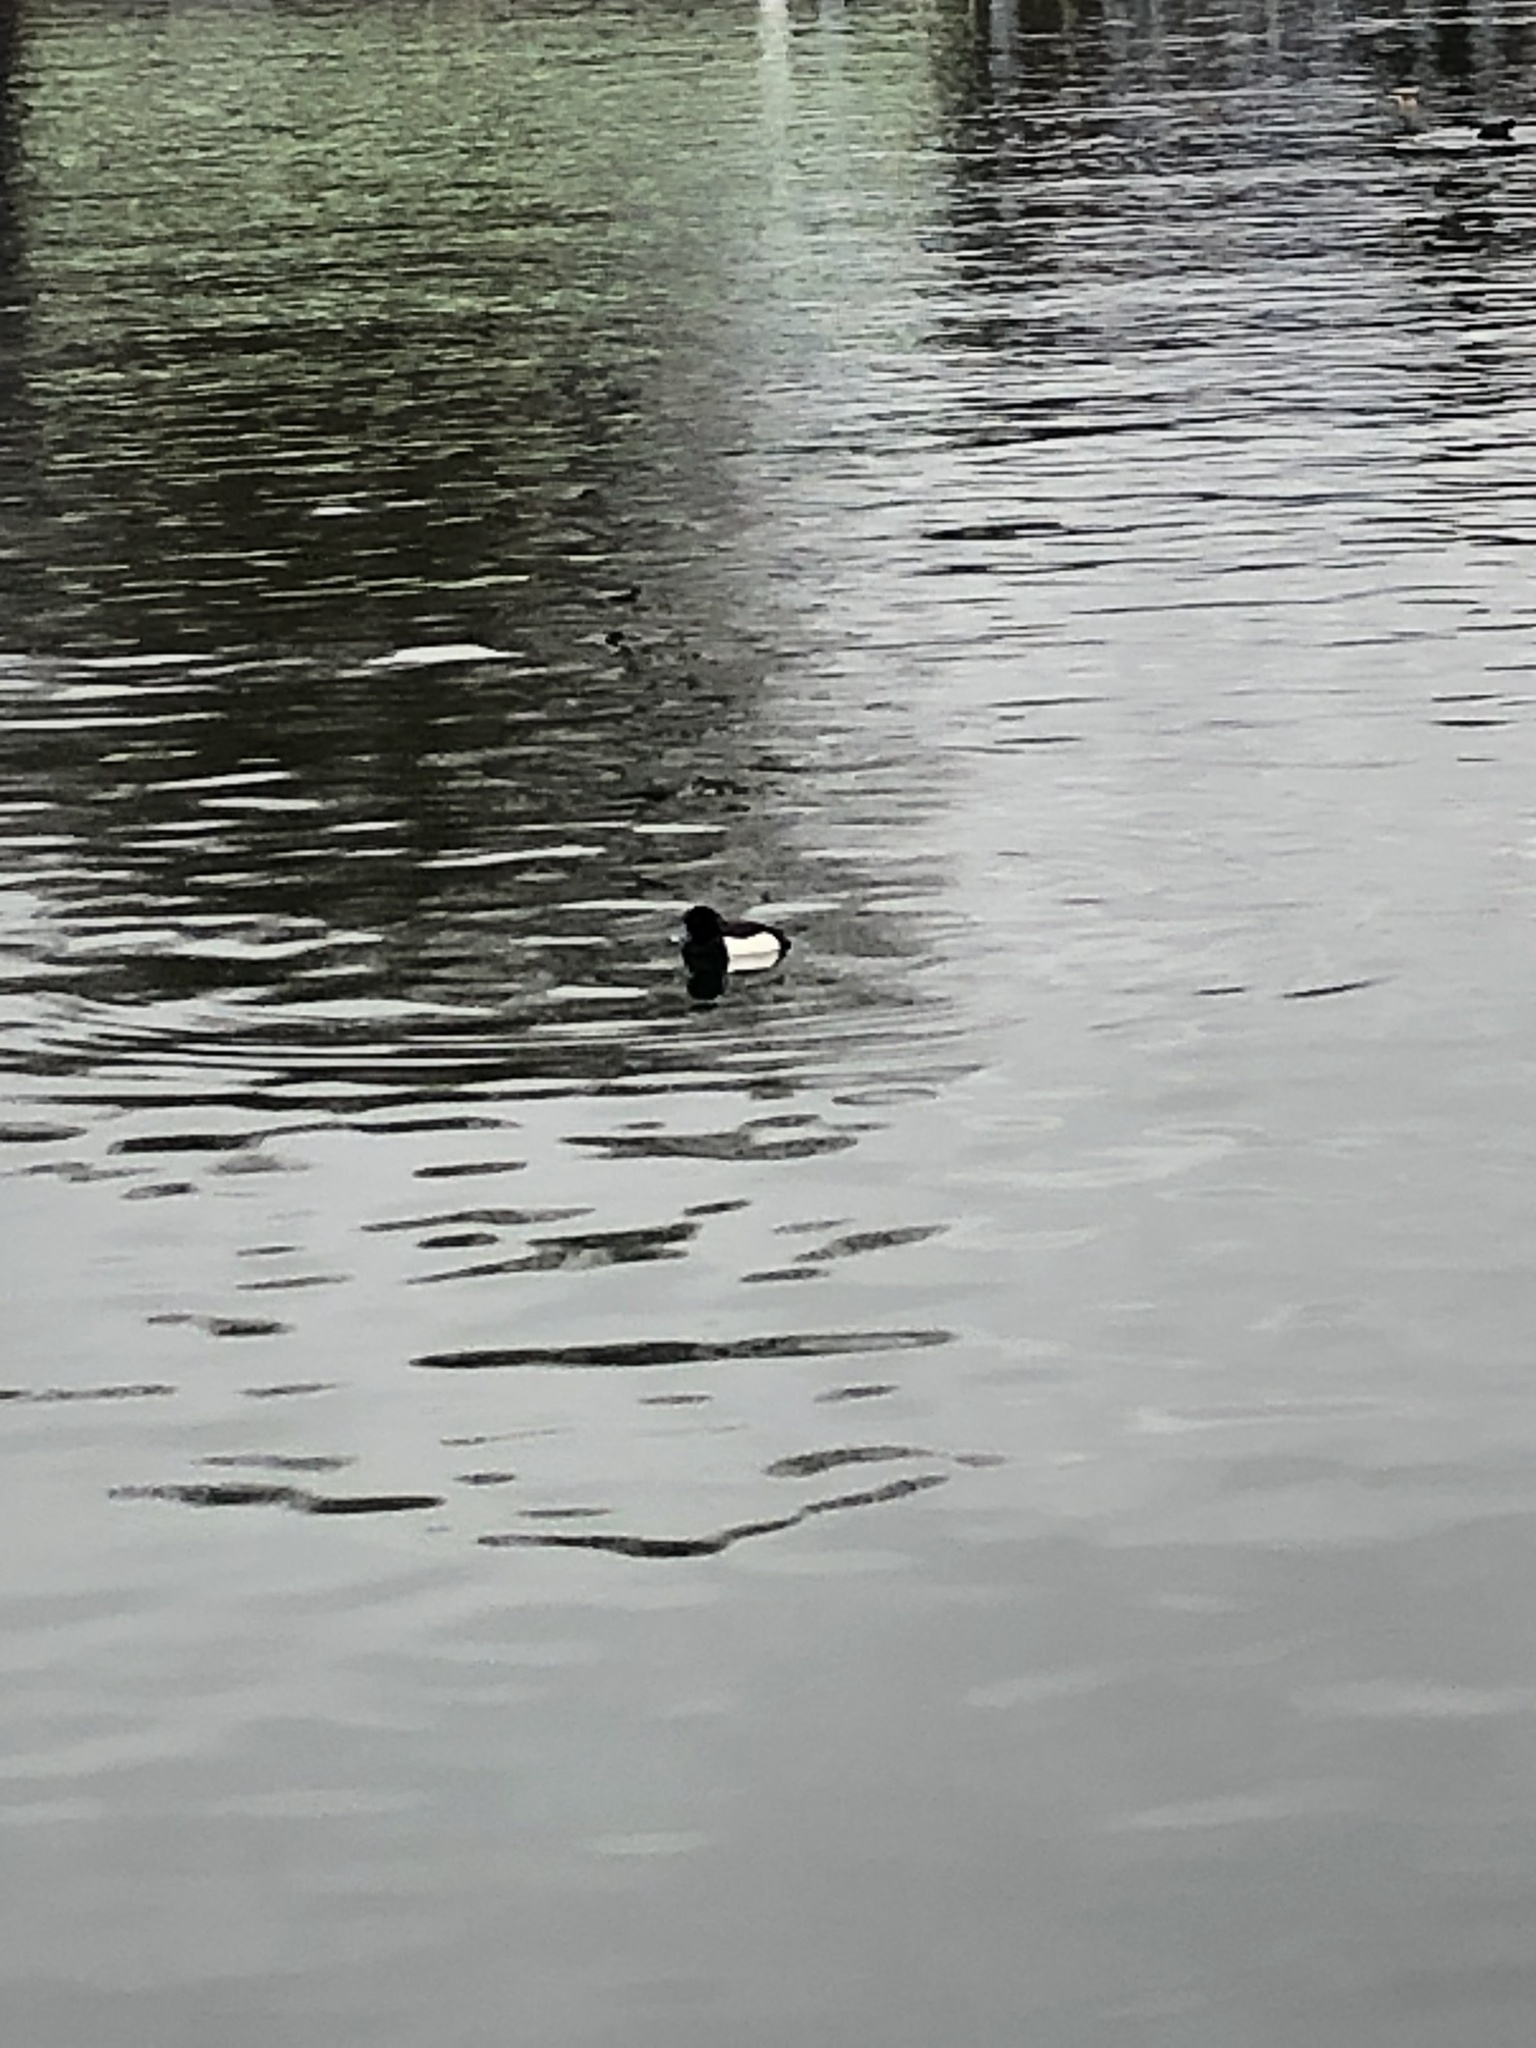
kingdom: Animalia
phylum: Chordata
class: Aves
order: Anseriformes
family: Anatidae
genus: Aythya
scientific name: Aythya fuligula
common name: Tufted duck
